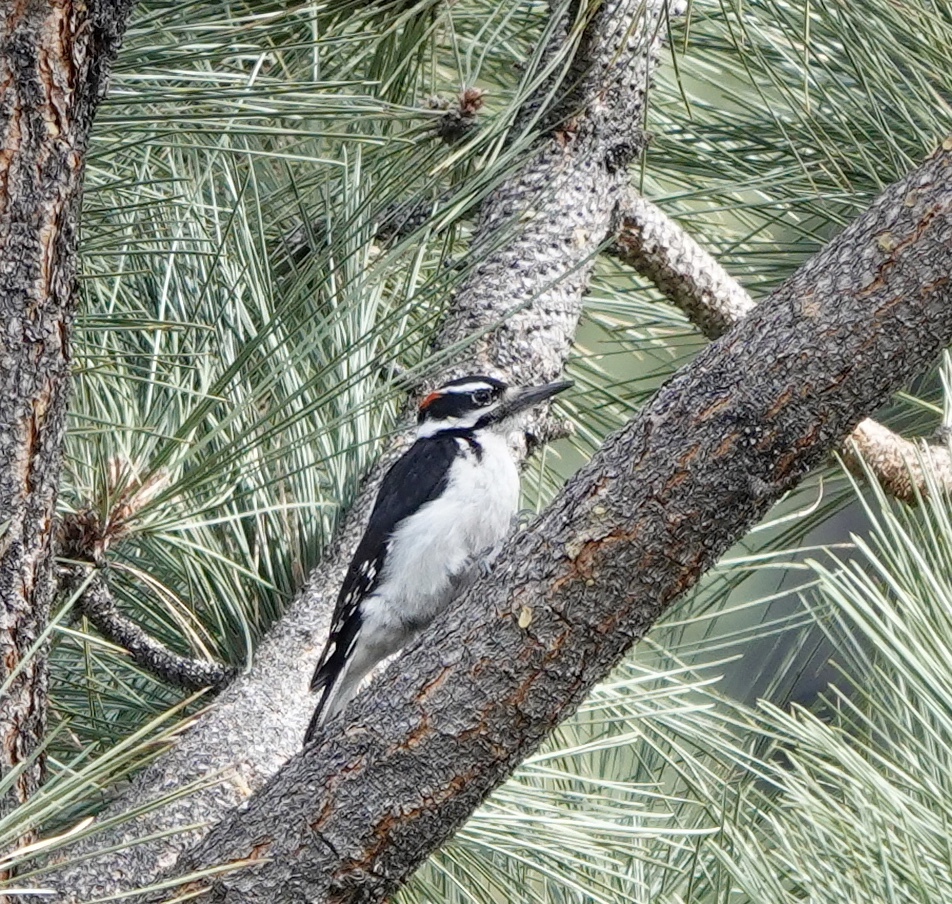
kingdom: Animalia
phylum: Chordata
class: Aves
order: Piciformes
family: Picidae
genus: Leuconotopicus
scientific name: Leuconotopicus villosus
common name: Hairy woodpecker
